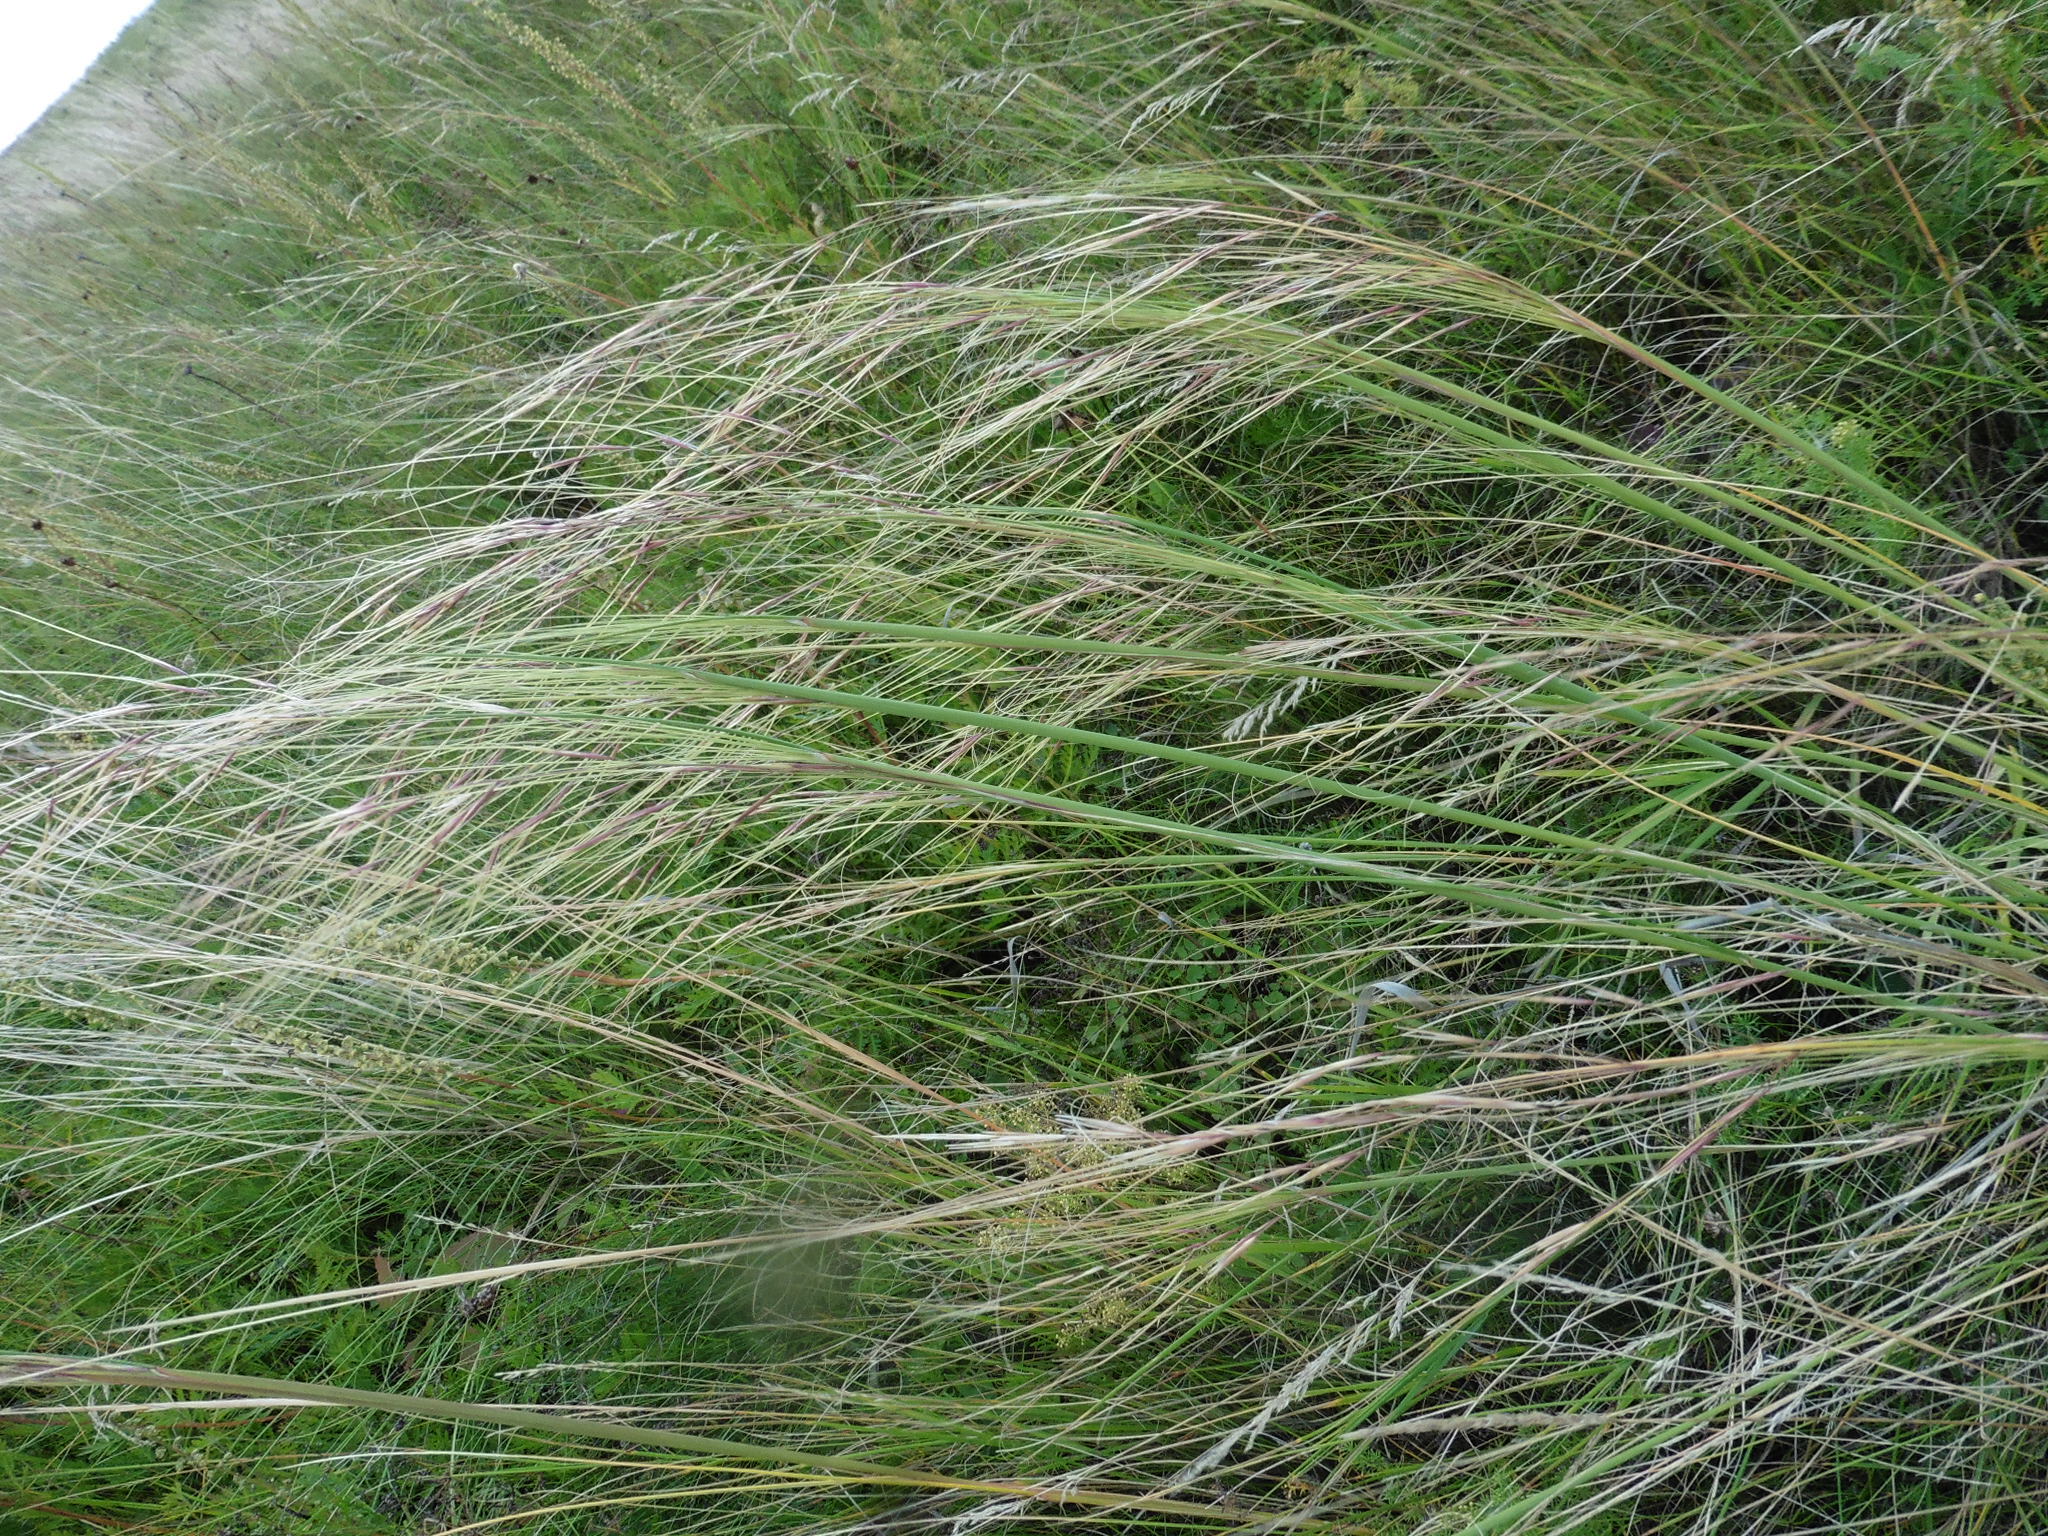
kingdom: Plantae
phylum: Tracheophyta
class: Liliopsida
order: Poales
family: Poaceae
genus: Stipa
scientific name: Stipa capillata
